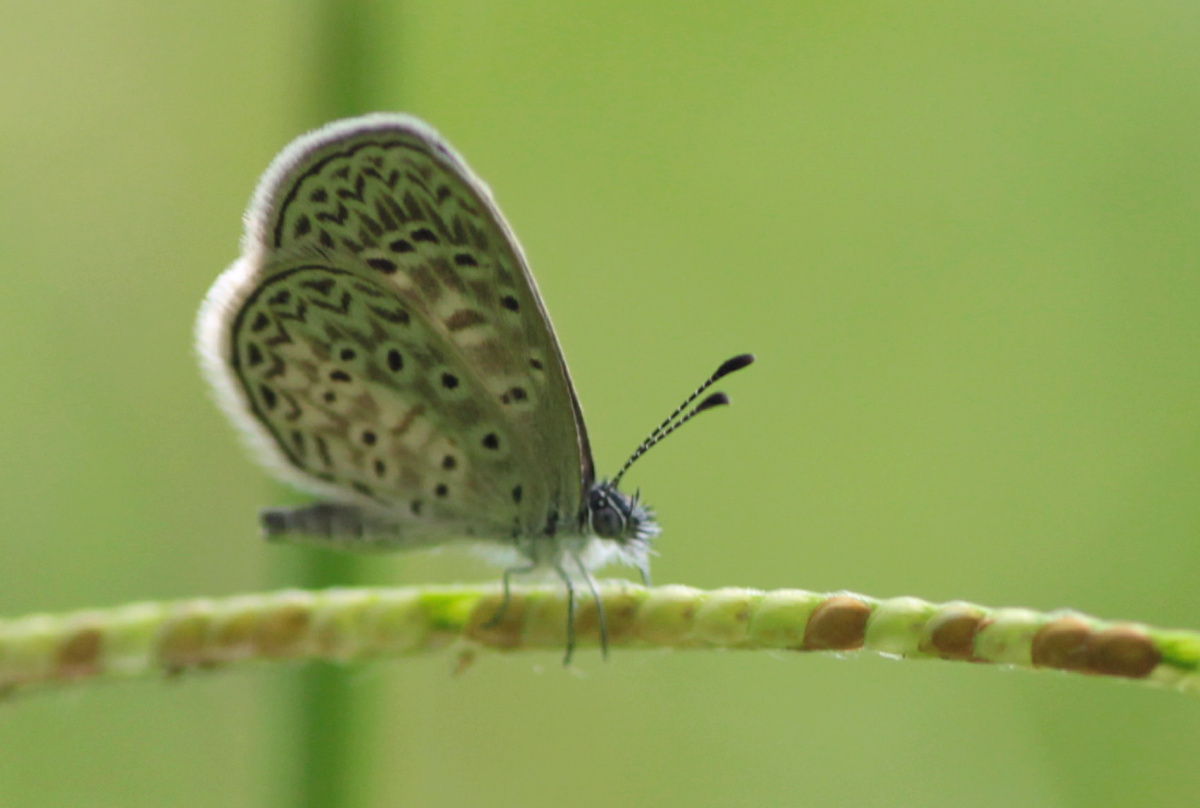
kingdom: Animalia
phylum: Arthropoda
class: Insecta
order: Lepidoptera
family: Lycaenidae
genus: Lycaena
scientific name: Lycaena cyna
